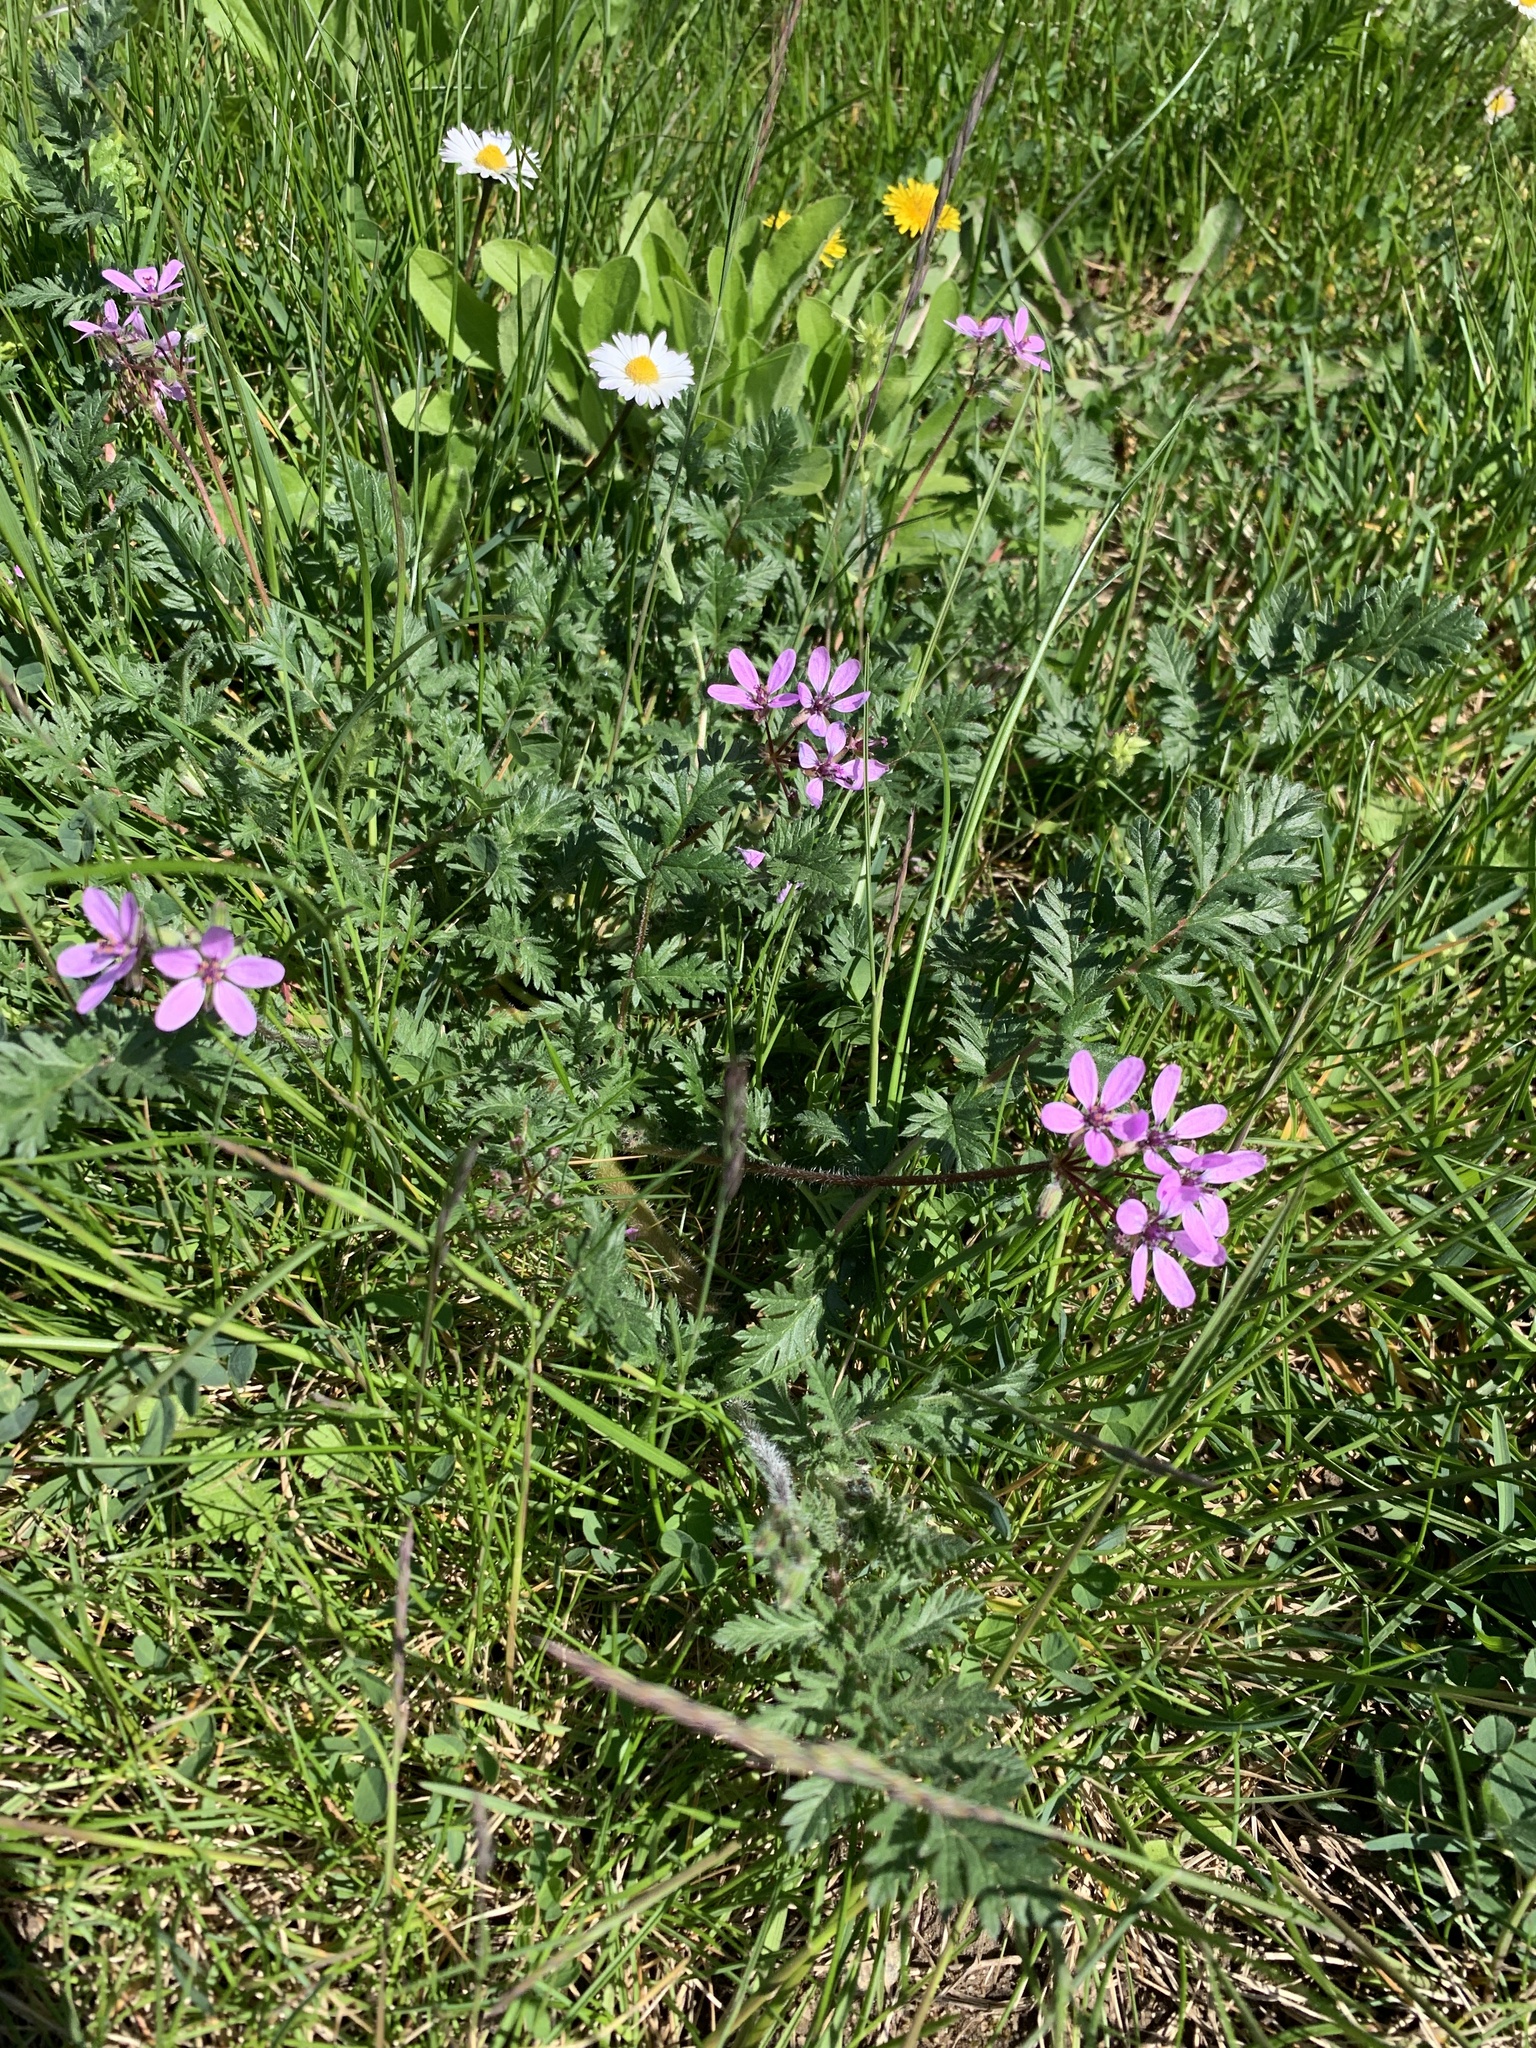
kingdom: Plantae
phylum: Tracheophyta
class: Magnoliopsida
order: Geraniales
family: Geraniaceae
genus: Erodium
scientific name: Erodium cicutarium
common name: Common stork's-bill
